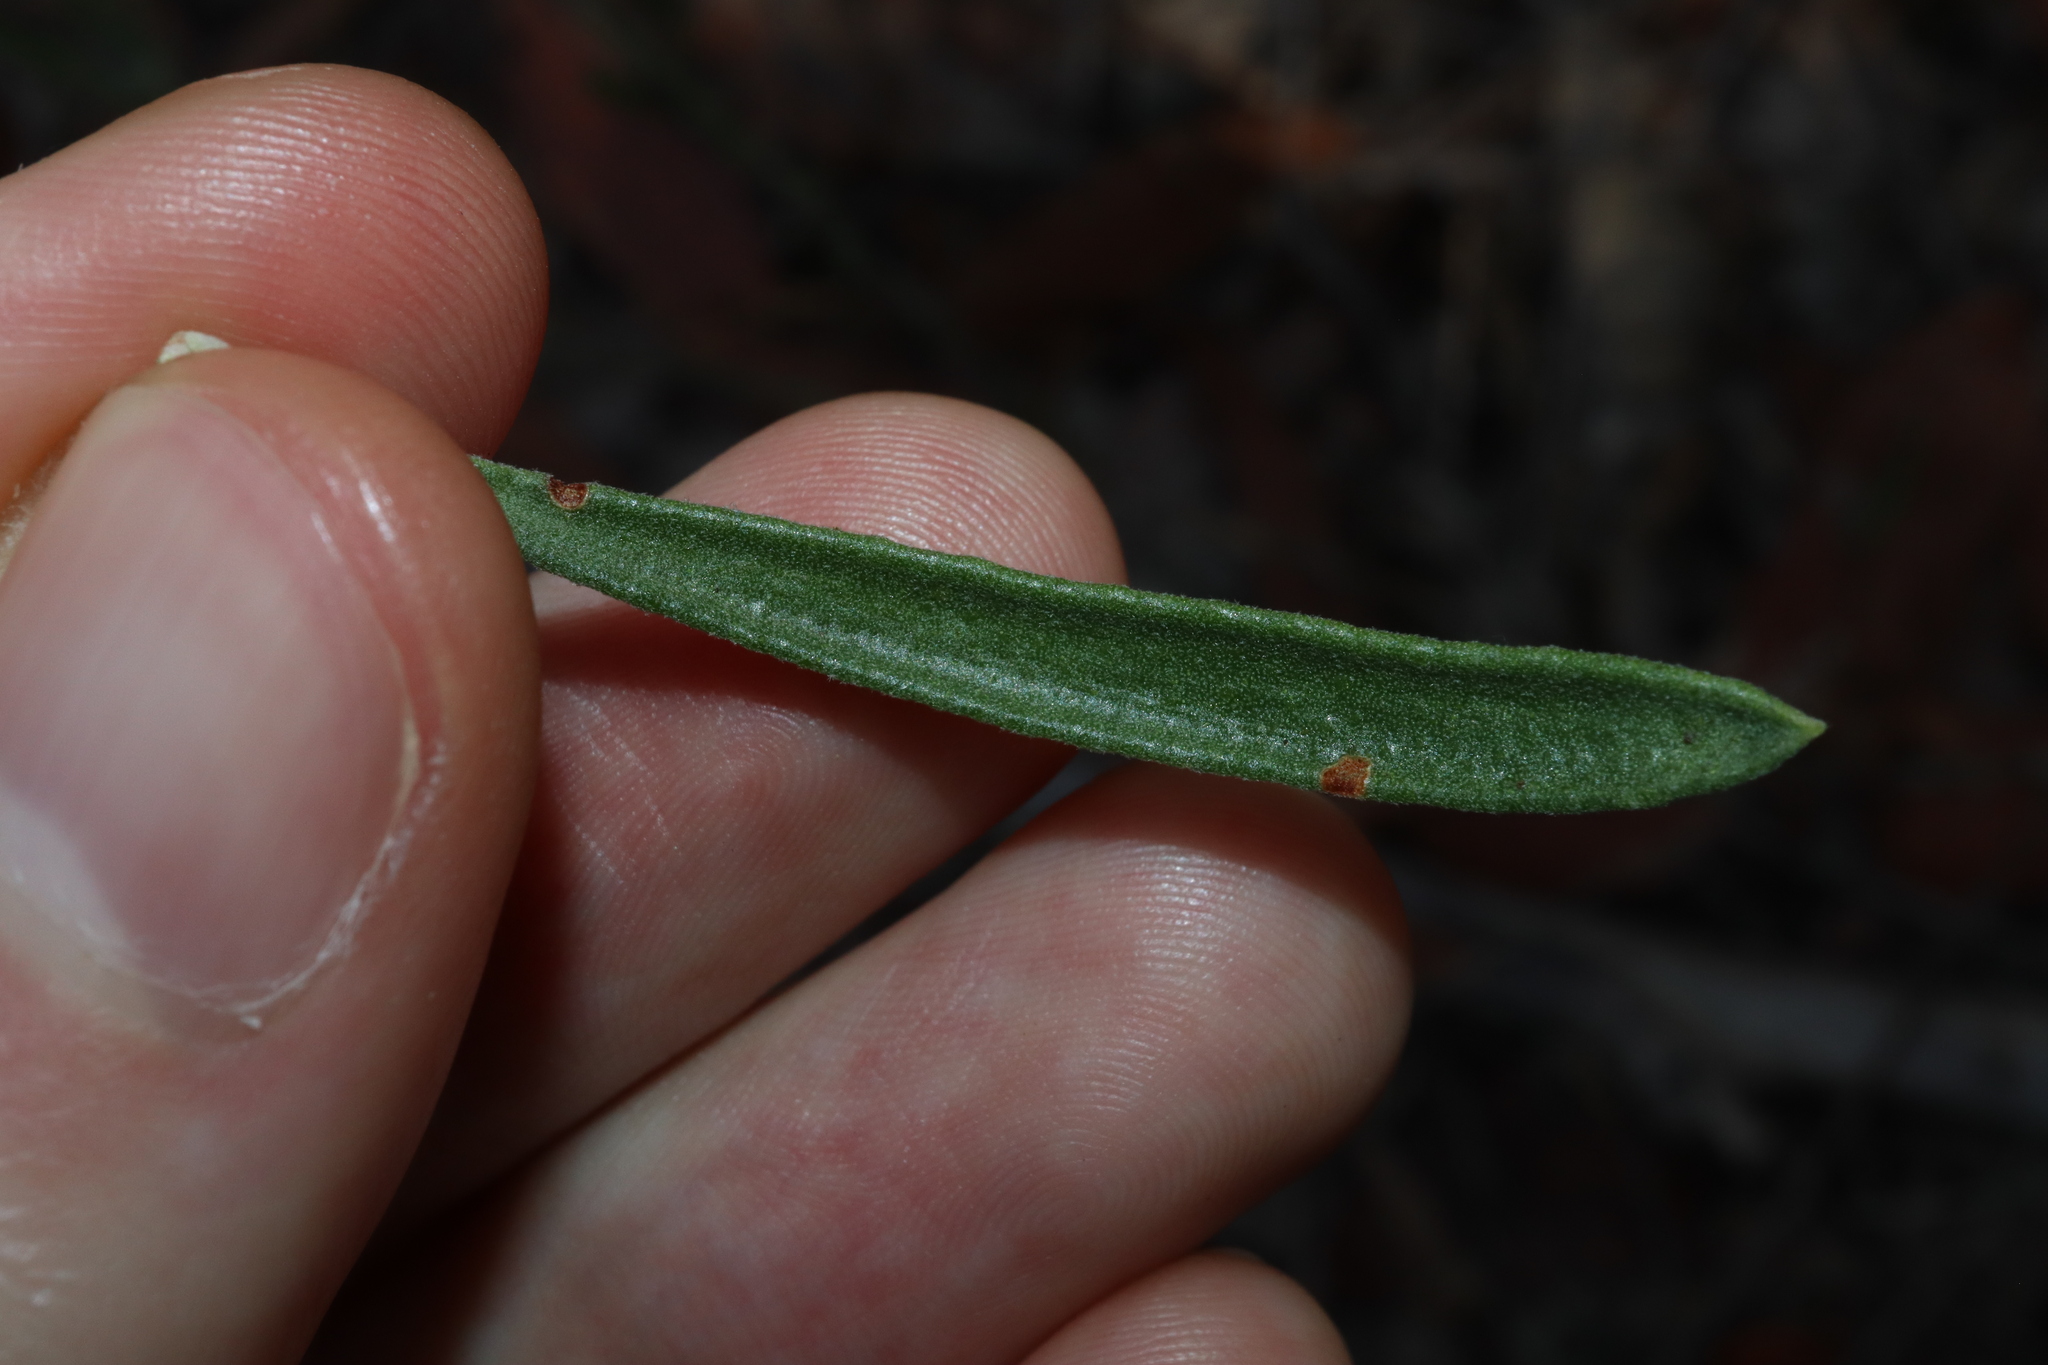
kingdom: Plantae
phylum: Tracheophyta
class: Magnoliopsida
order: Sapindales
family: Rutaceae
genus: Eriostemon
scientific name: Eriostemon australasius
